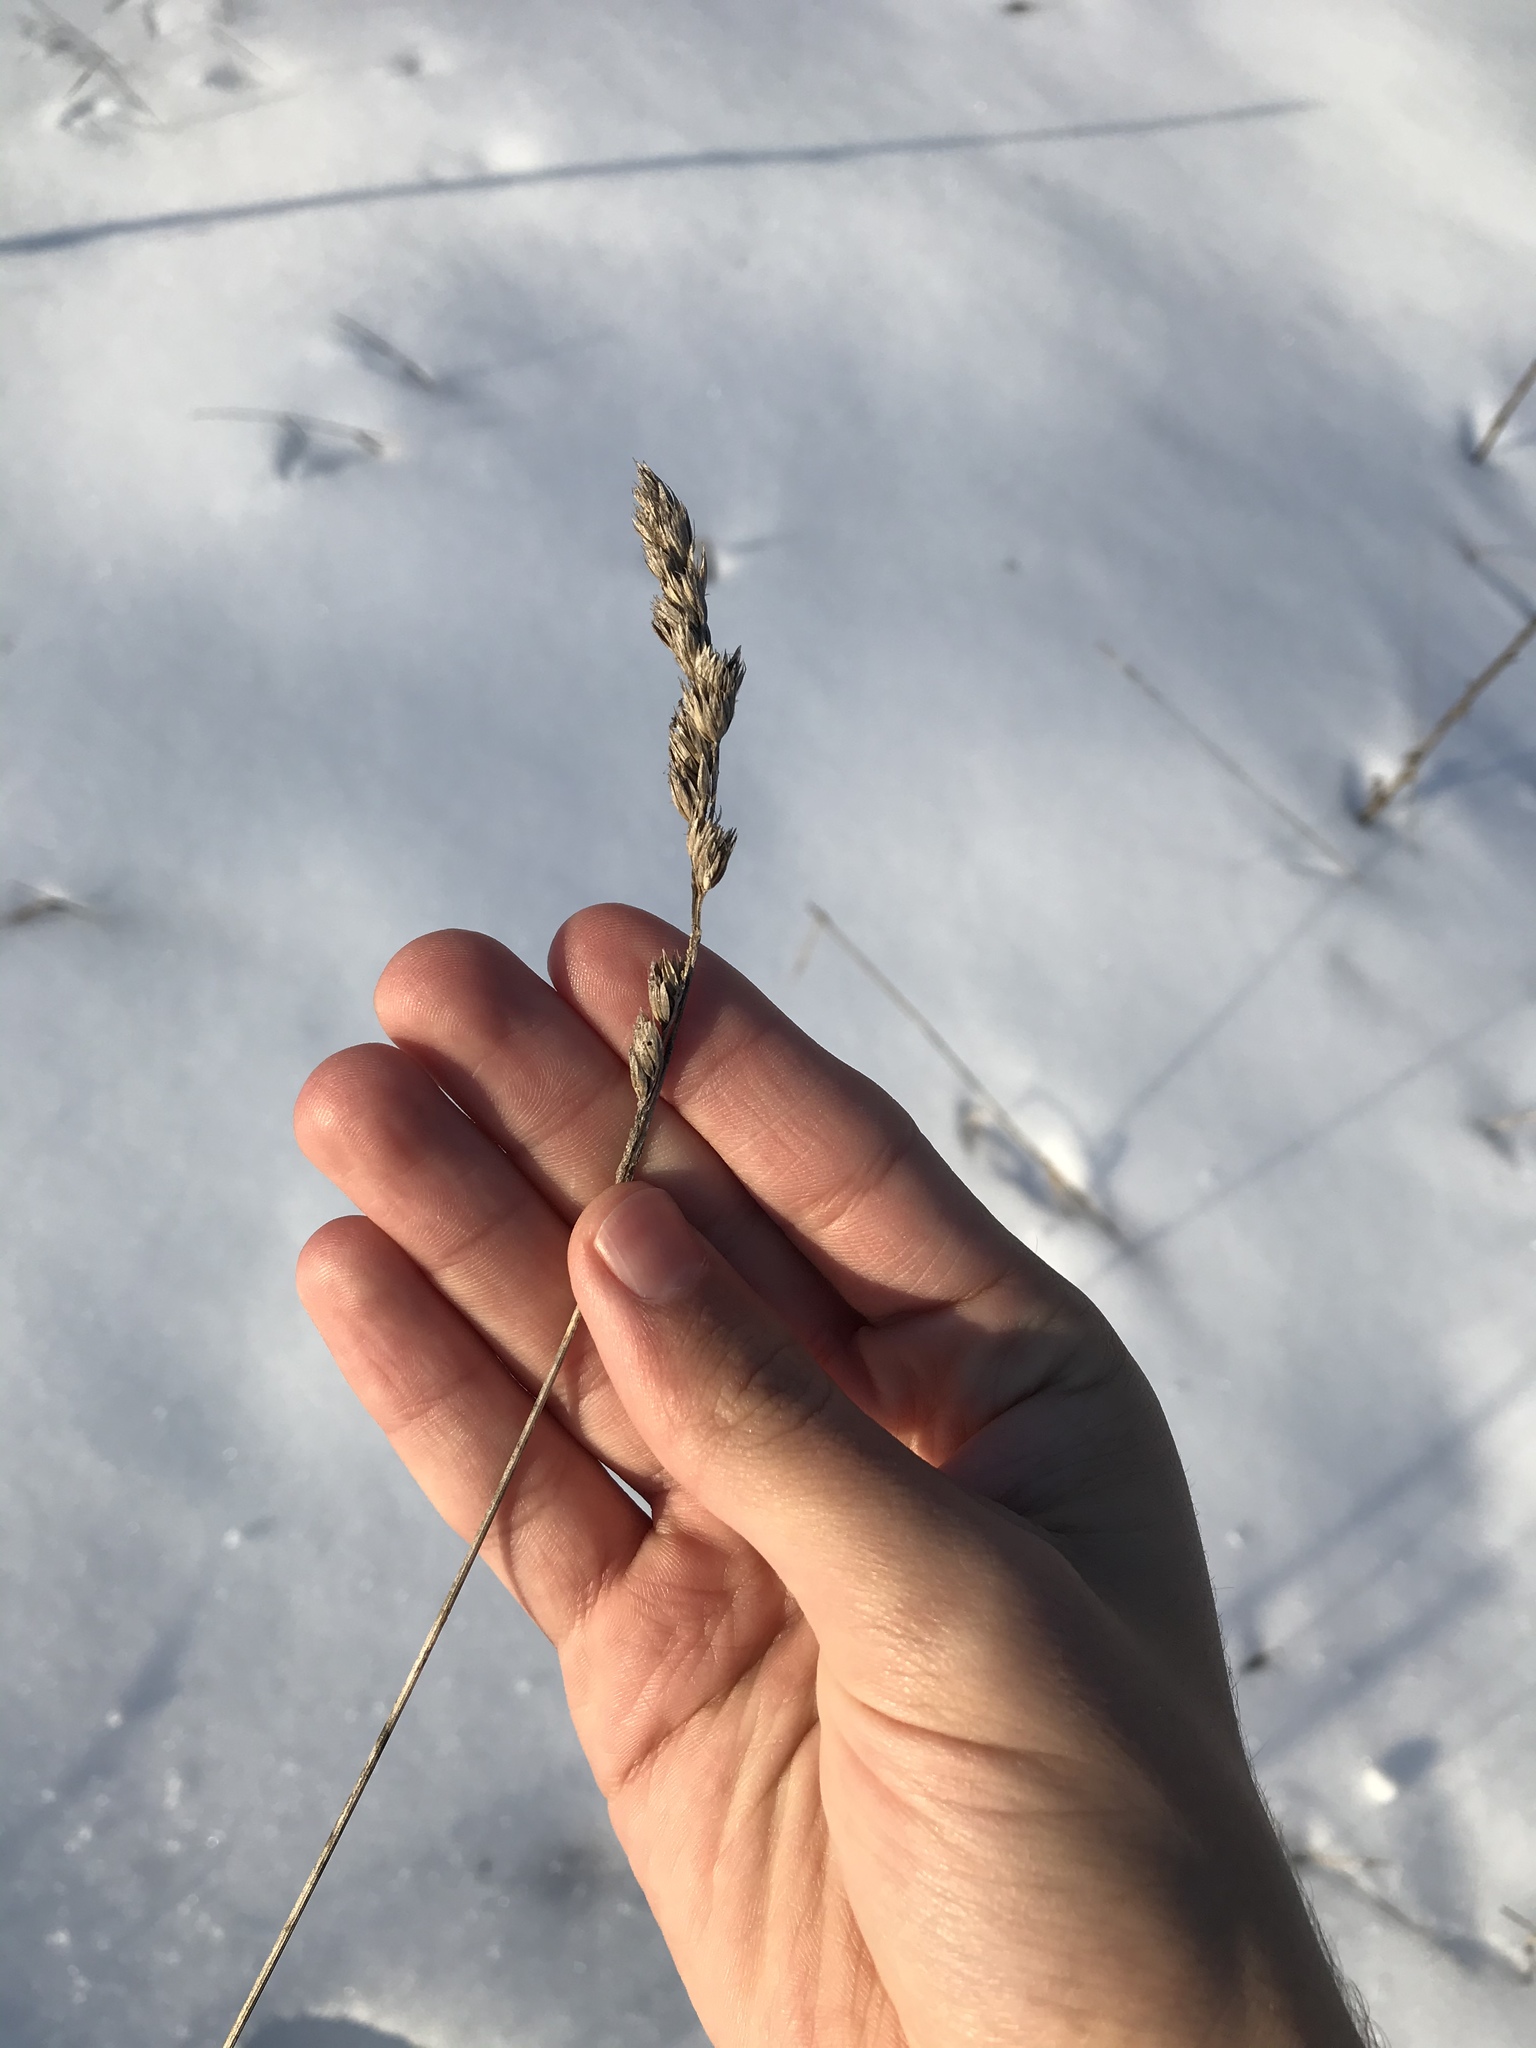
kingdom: Plantae
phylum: Tracheophyta
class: Liliopsida
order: Poales
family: Poaceae
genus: Dactylis
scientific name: Dactylis glomerata
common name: Orchardgrass
